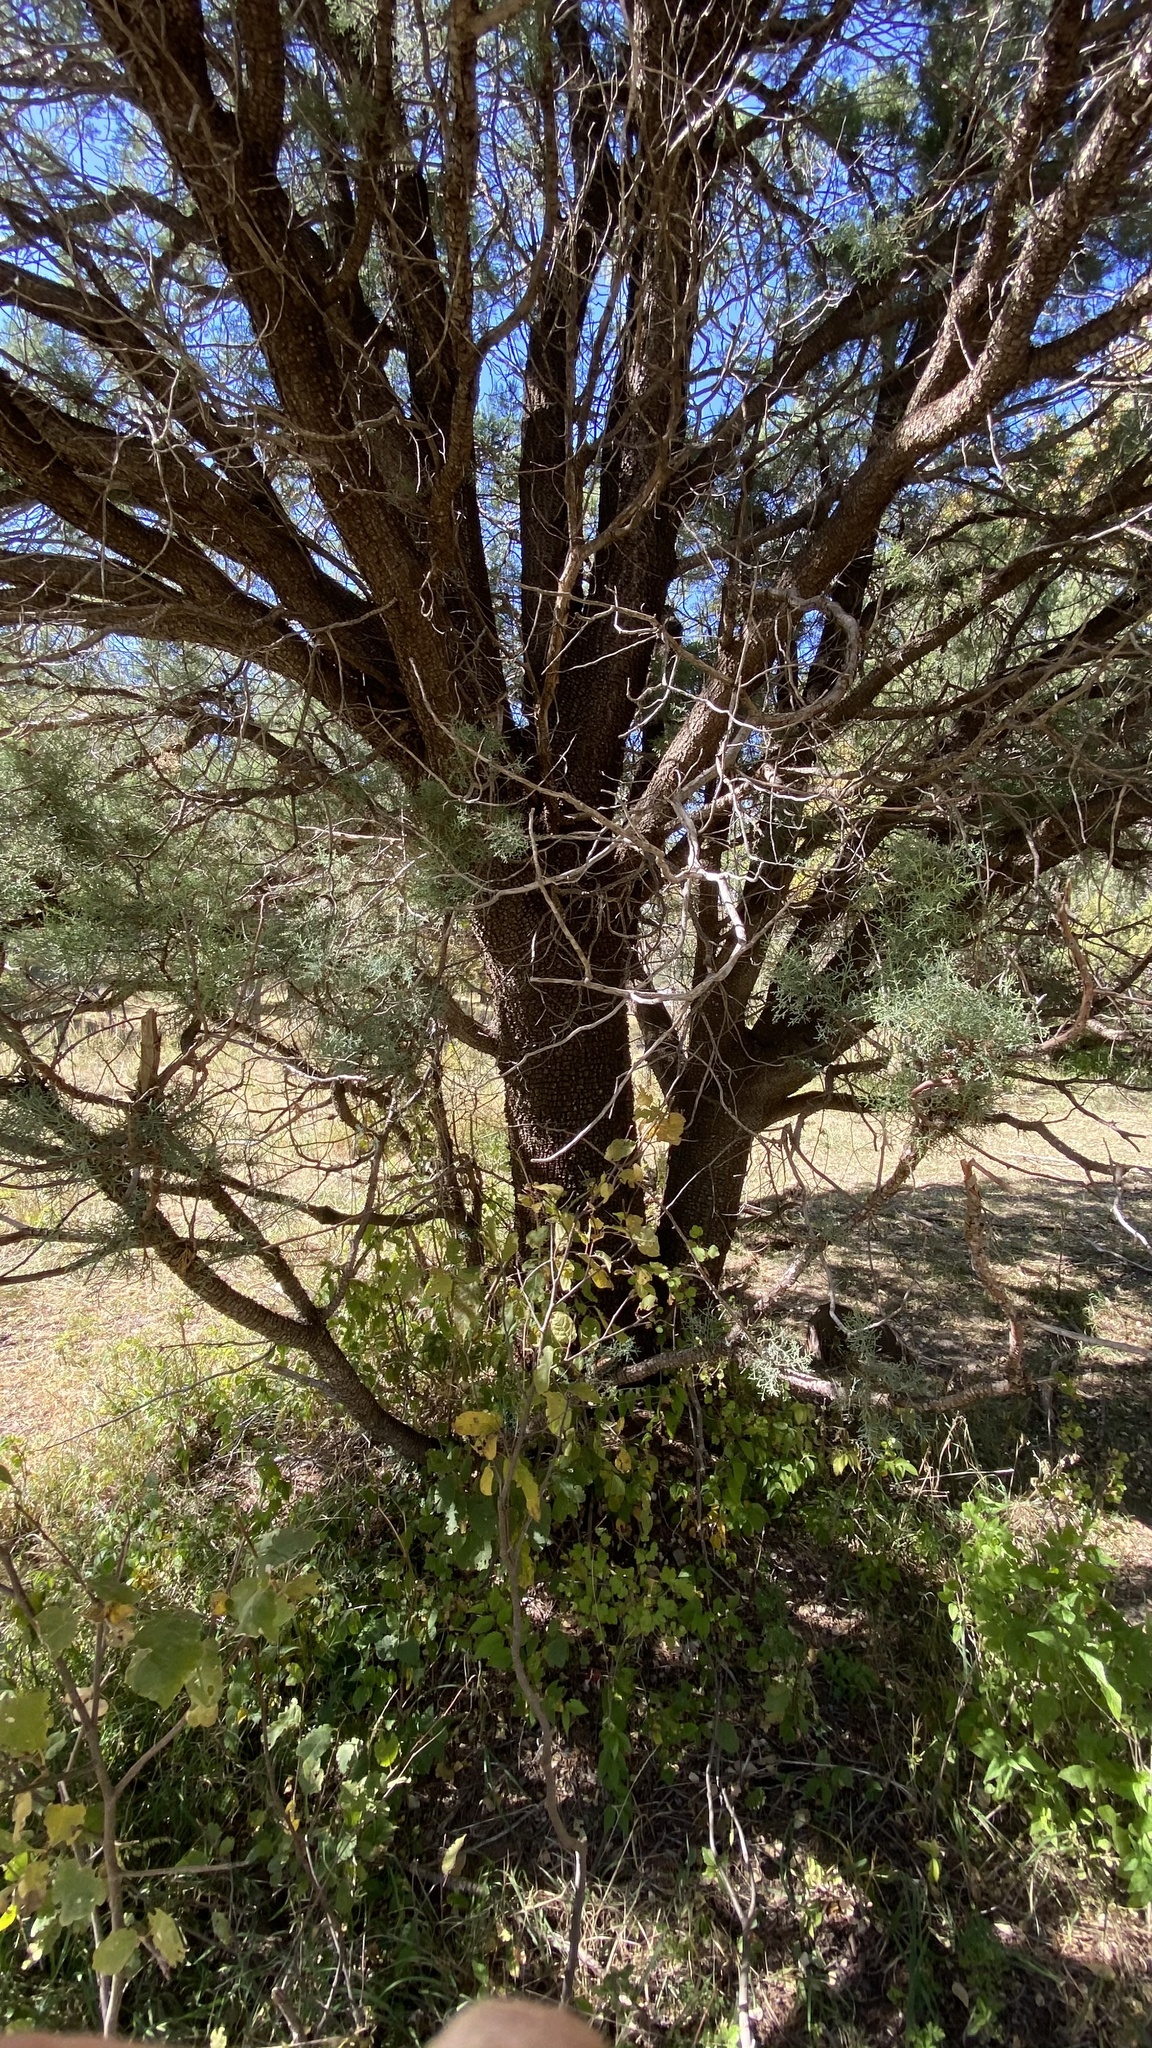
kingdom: Plantae
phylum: Tracheophyta
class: Pinopsida
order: Pinales
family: Cupressaceae
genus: Juniperus
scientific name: Juniperus deppeana
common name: Alligator juniper
